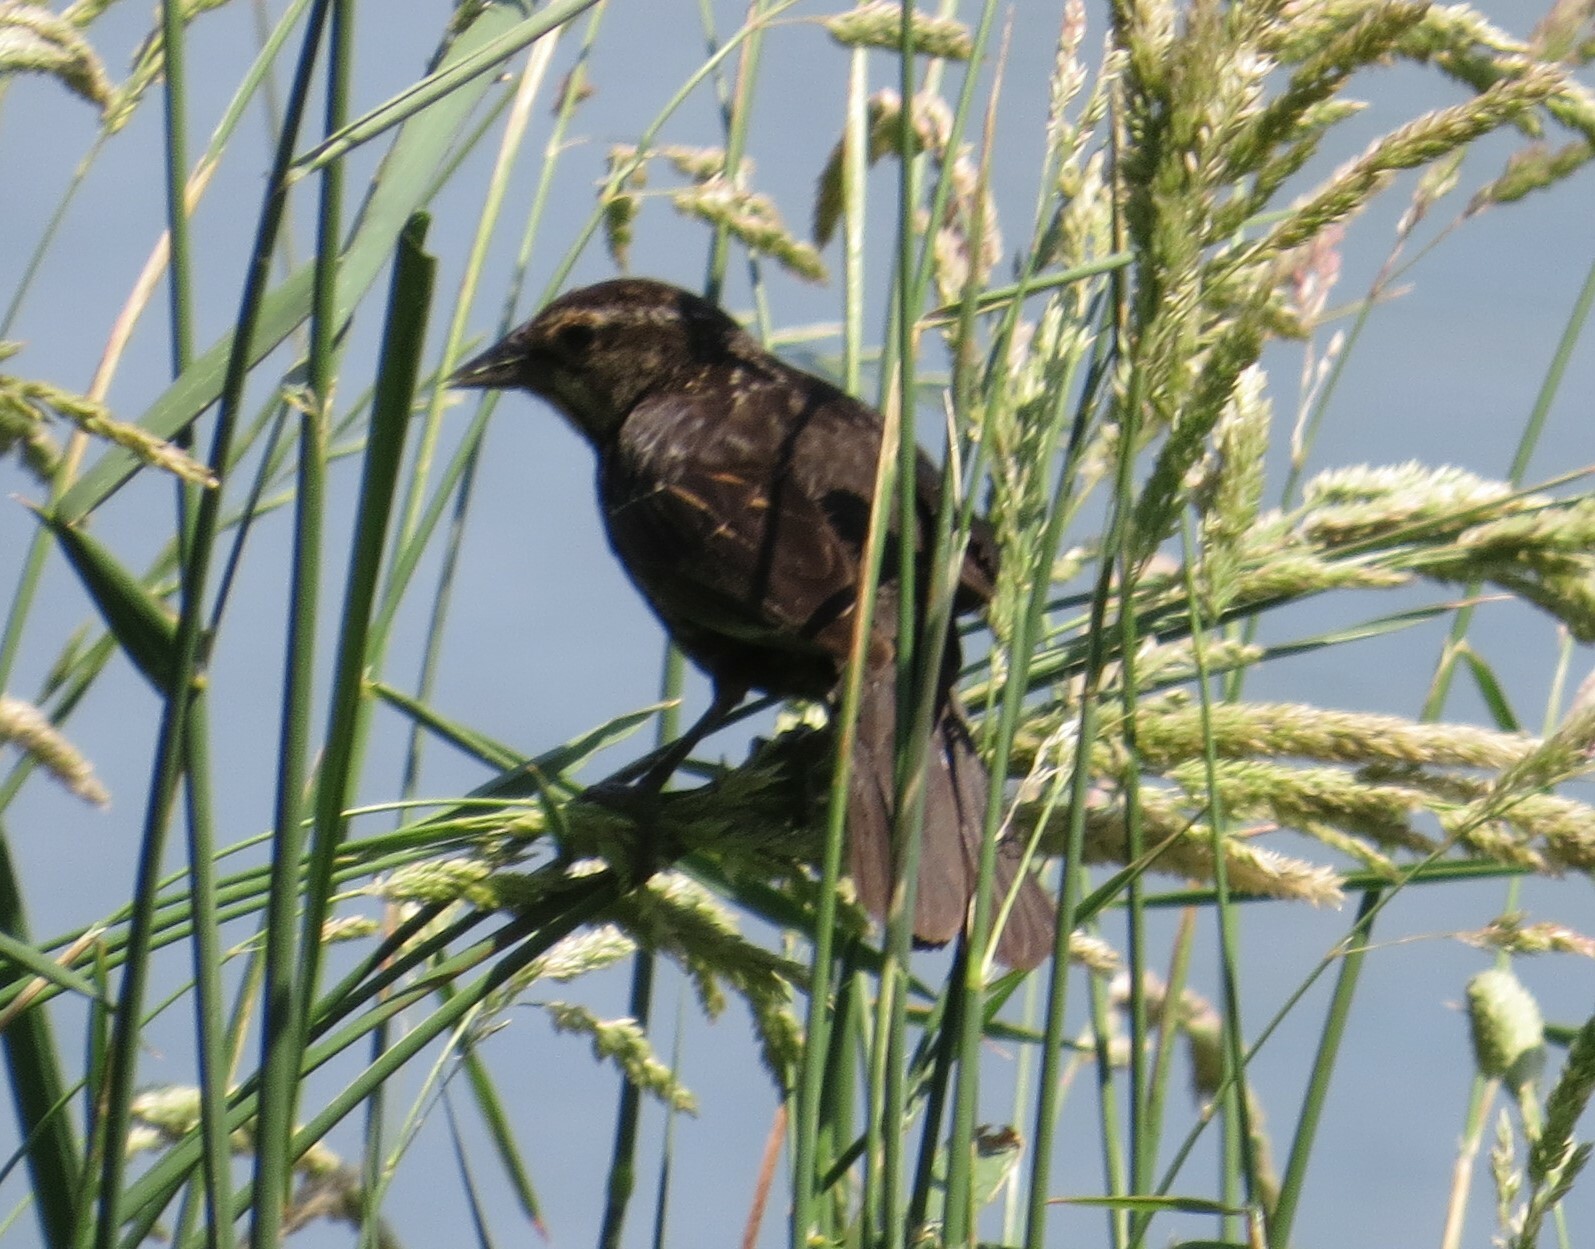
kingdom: Animalia
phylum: Chordata
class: Aves
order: Passeriformes
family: Icteridae
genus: Agelaius
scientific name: Agelaius phoeniceus
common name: Red-winged blackbird
